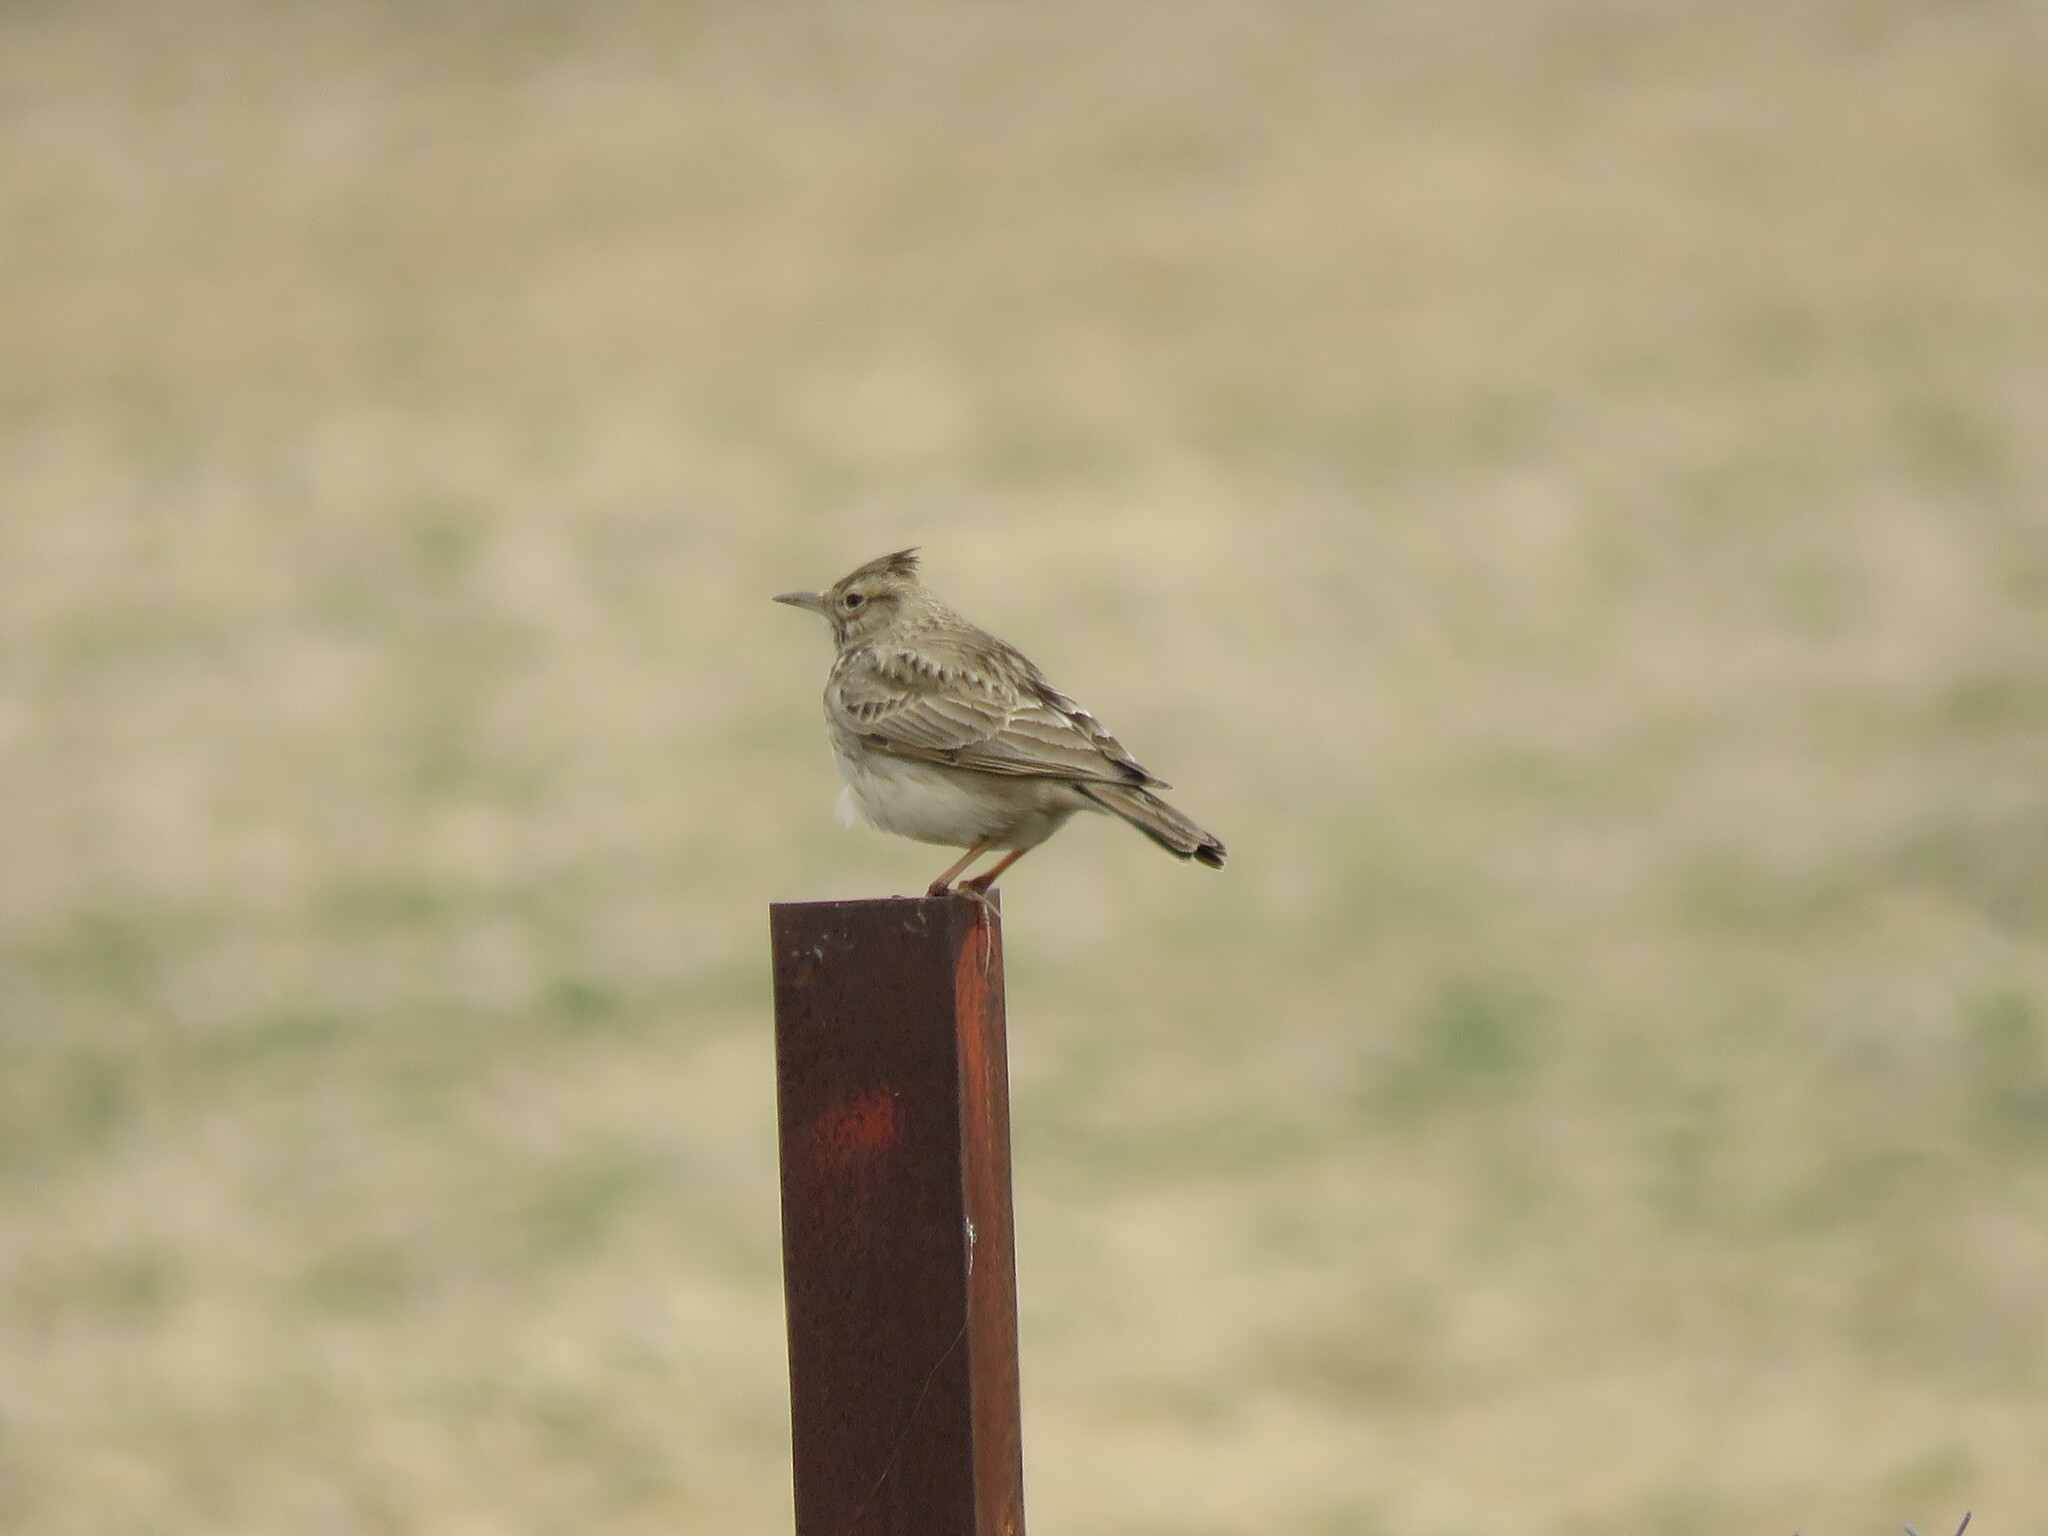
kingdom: Animalia
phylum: Chordata
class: Aves
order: Passeriformes
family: Alaudidae
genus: Galerida
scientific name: Galerida cristata
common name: Crested lark
